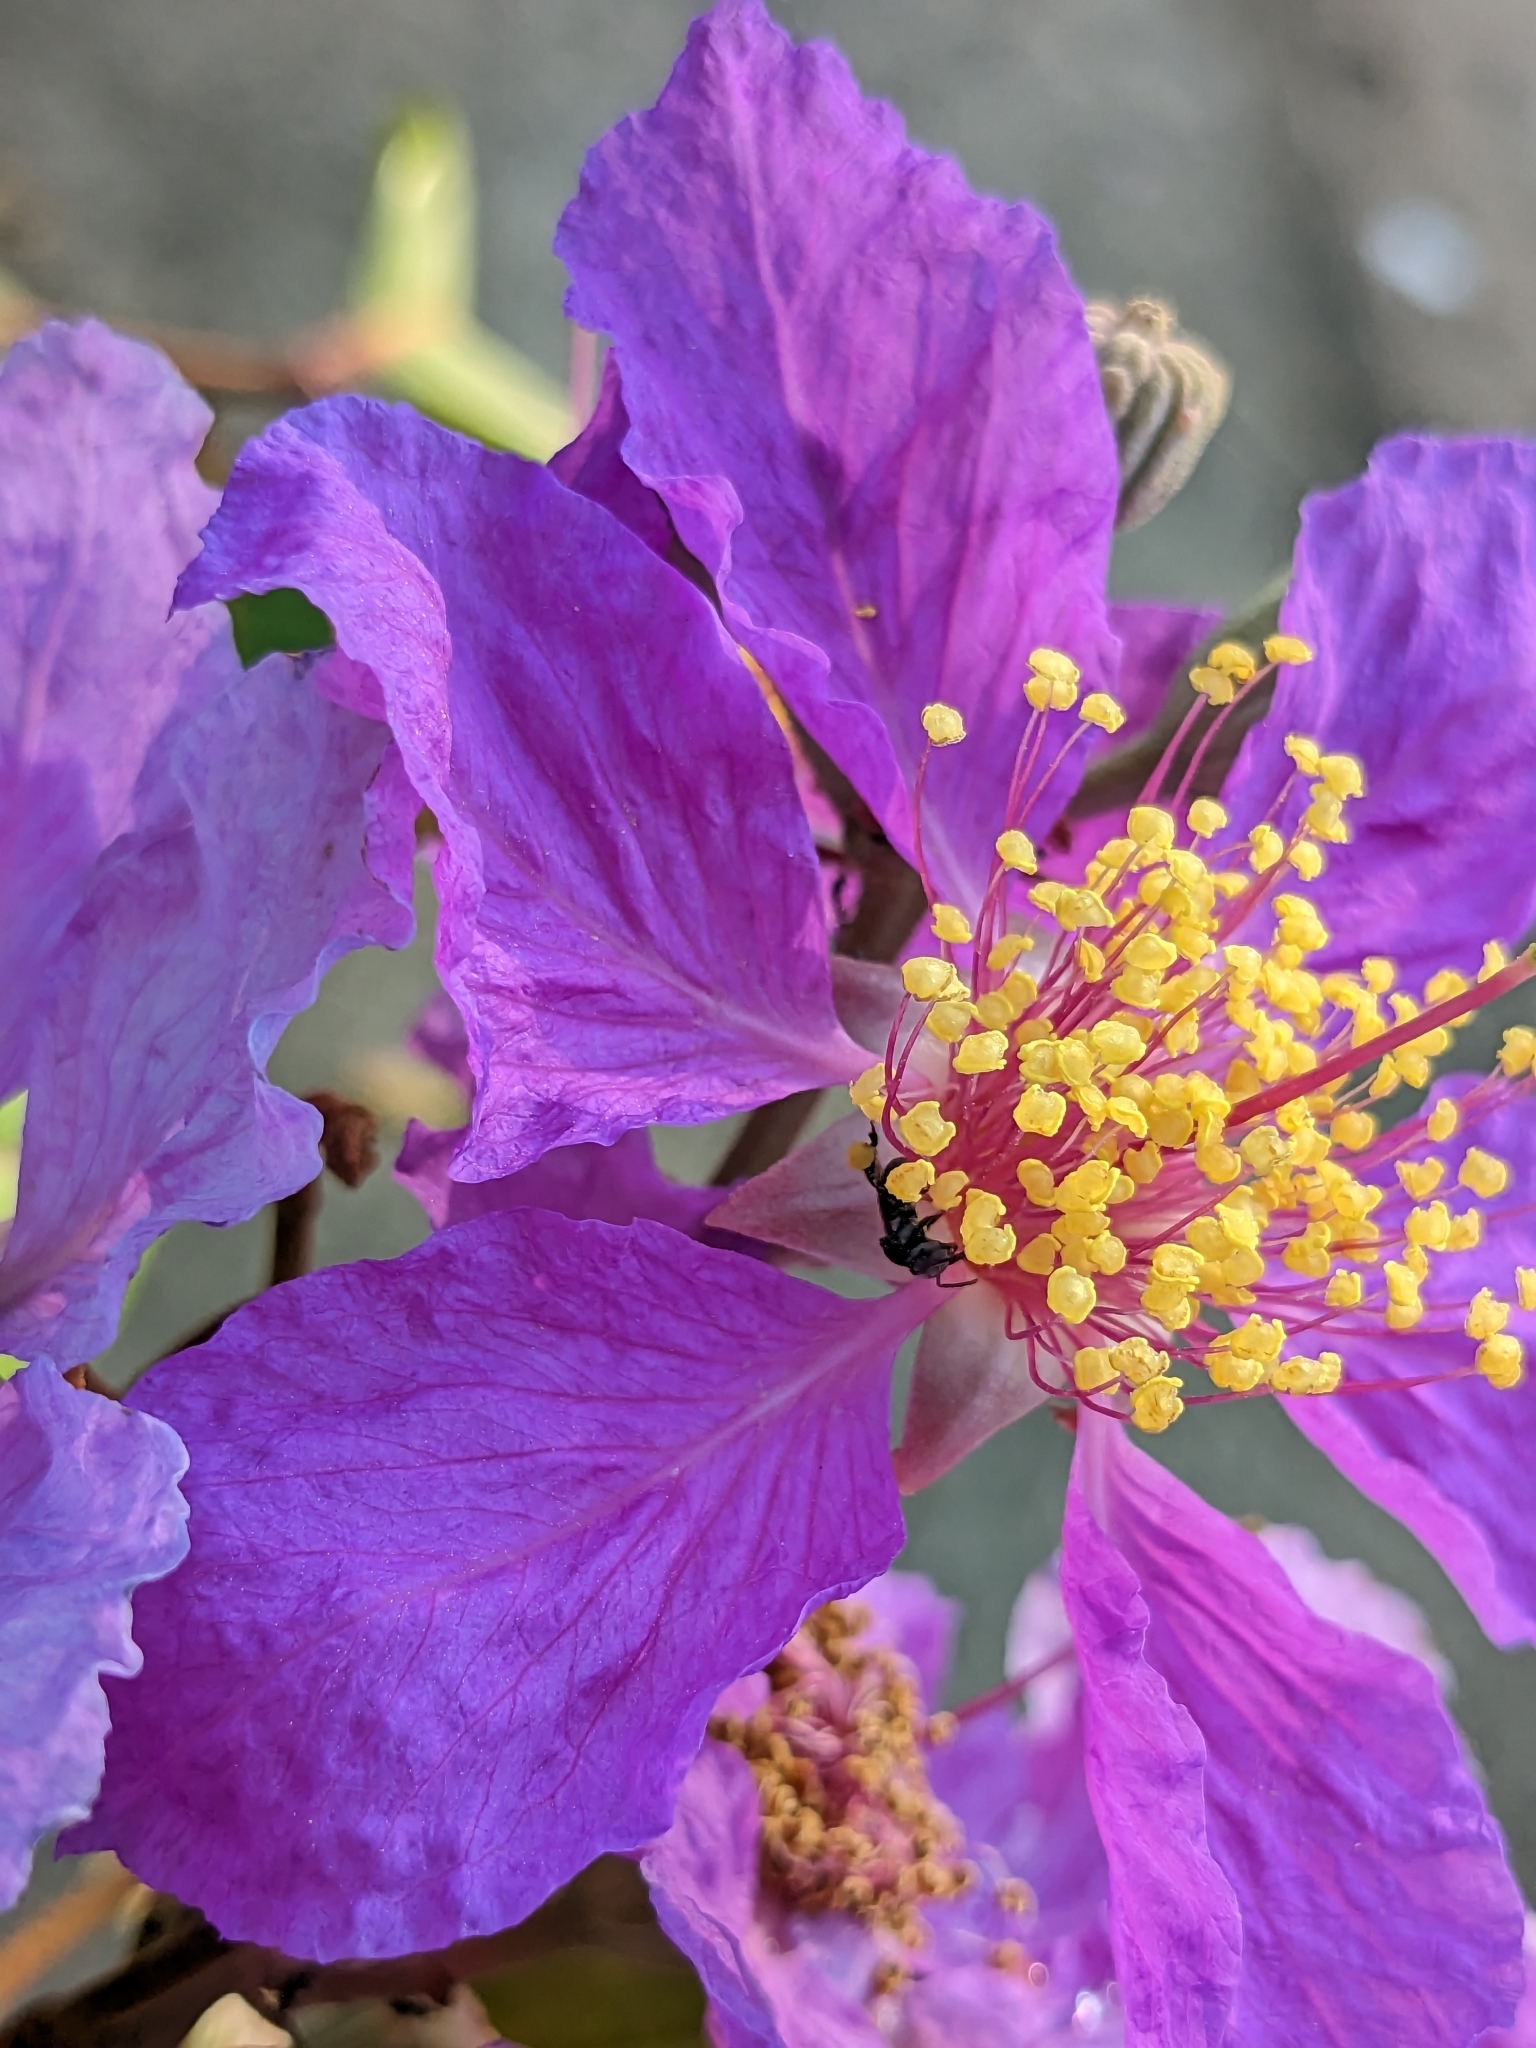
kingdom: Plantae
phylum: Tracheophyta
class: Magnoliopsida
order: Myrtales
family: Lythraceae
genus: Lagerstroemia
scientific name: Lagerstroemia speciosa
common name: Queen's crape-myrtle
